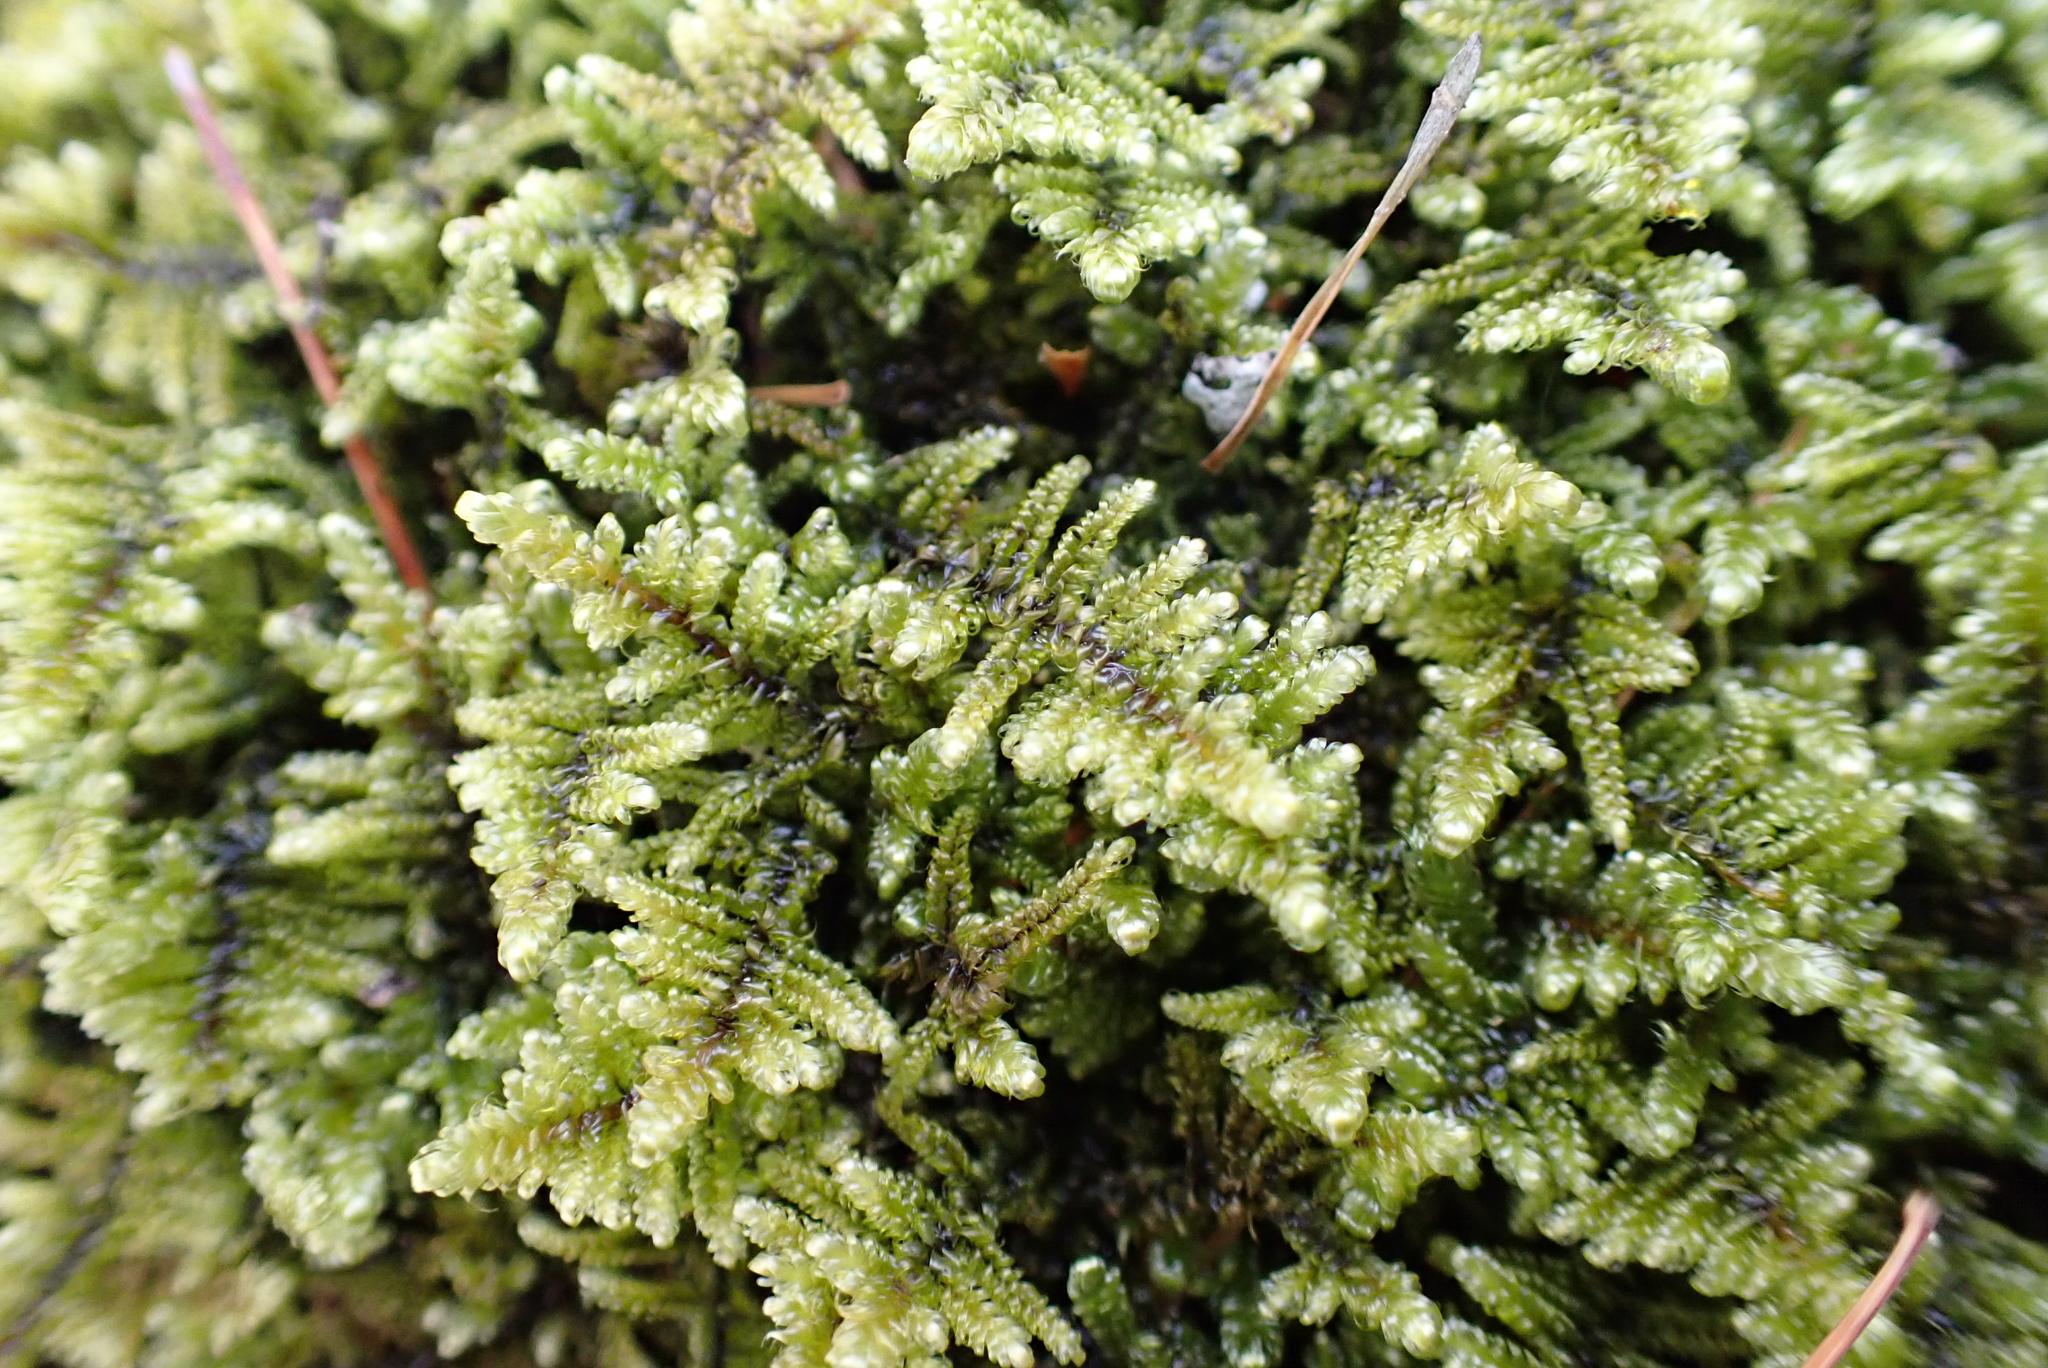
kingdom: Plantae
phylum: Bryophyta
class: Bryopsida
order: Hypnales
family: Callicladiaceae
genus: Callicladium
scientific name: Callicladium imponens
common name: Brocade moss
